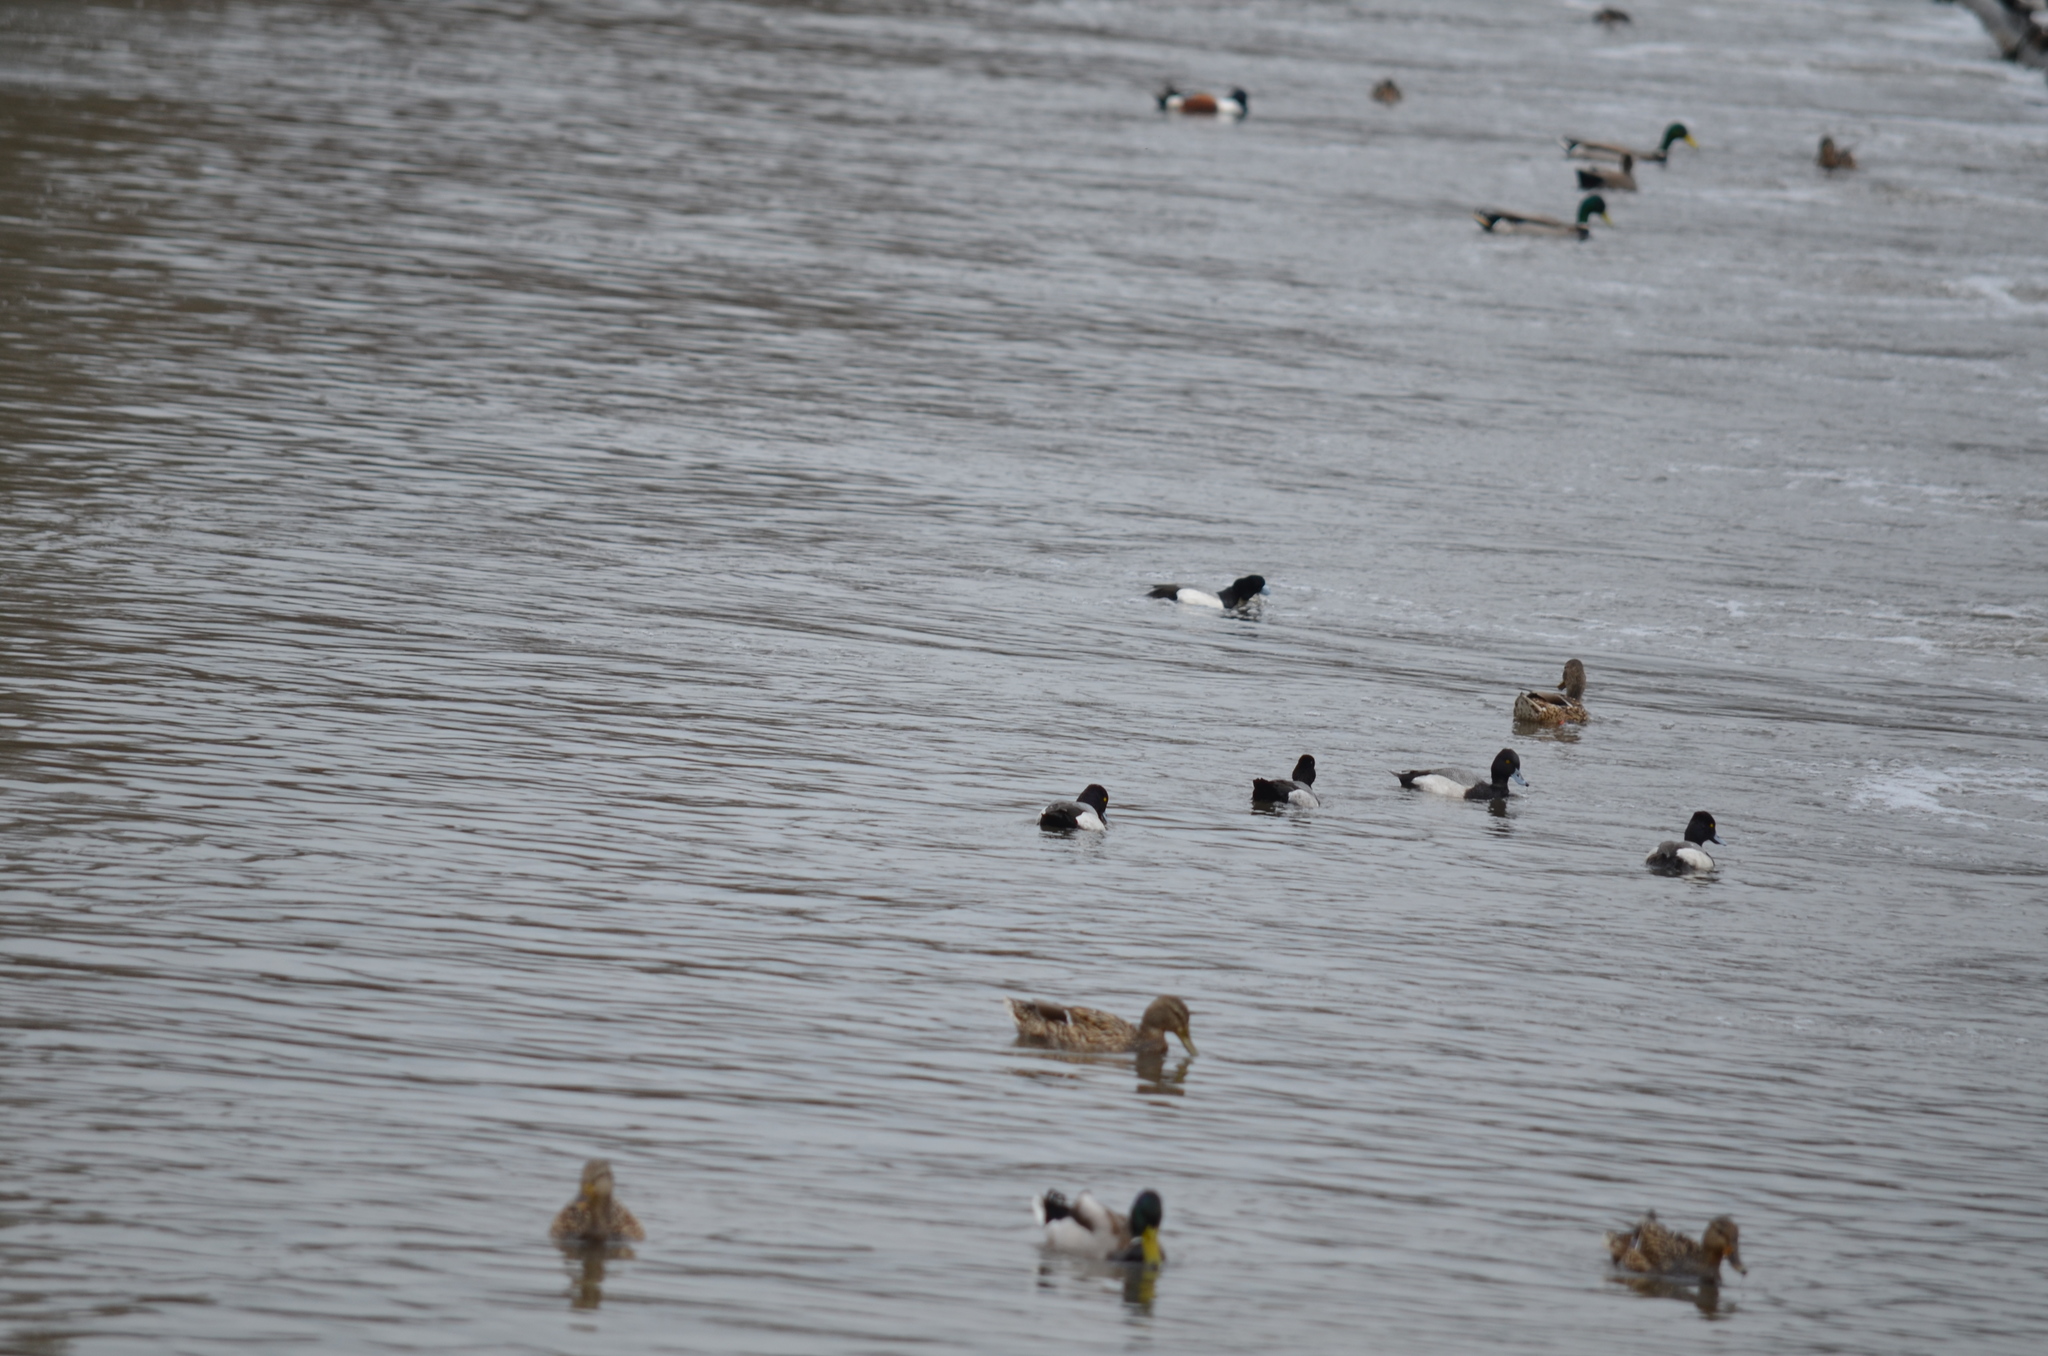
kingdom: Animalia
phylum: Chordata
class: Aves
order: Anseriformes
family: Anatidae
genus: Aythya
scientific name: Aythya affinis
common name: Lesser scaup
